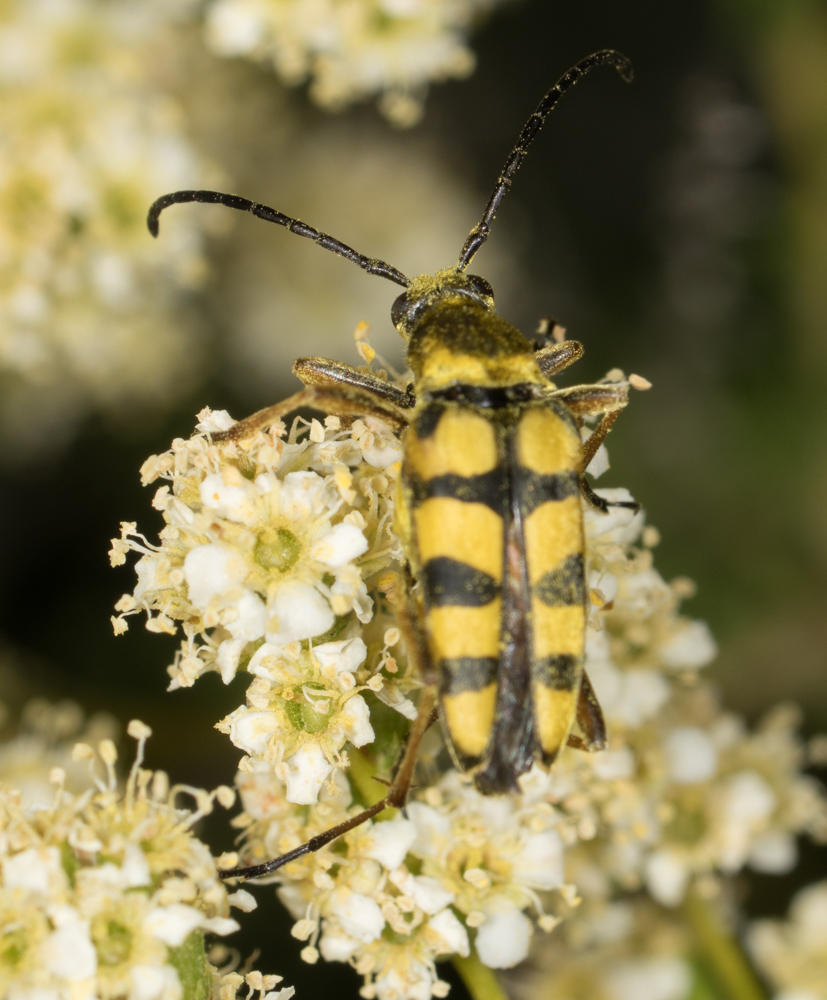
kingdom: Animalia
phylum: Arthropoda
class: Insecta
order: Coleoptera
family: Cerambycidae
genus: Strophiona
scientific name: Strophiona tigrina
